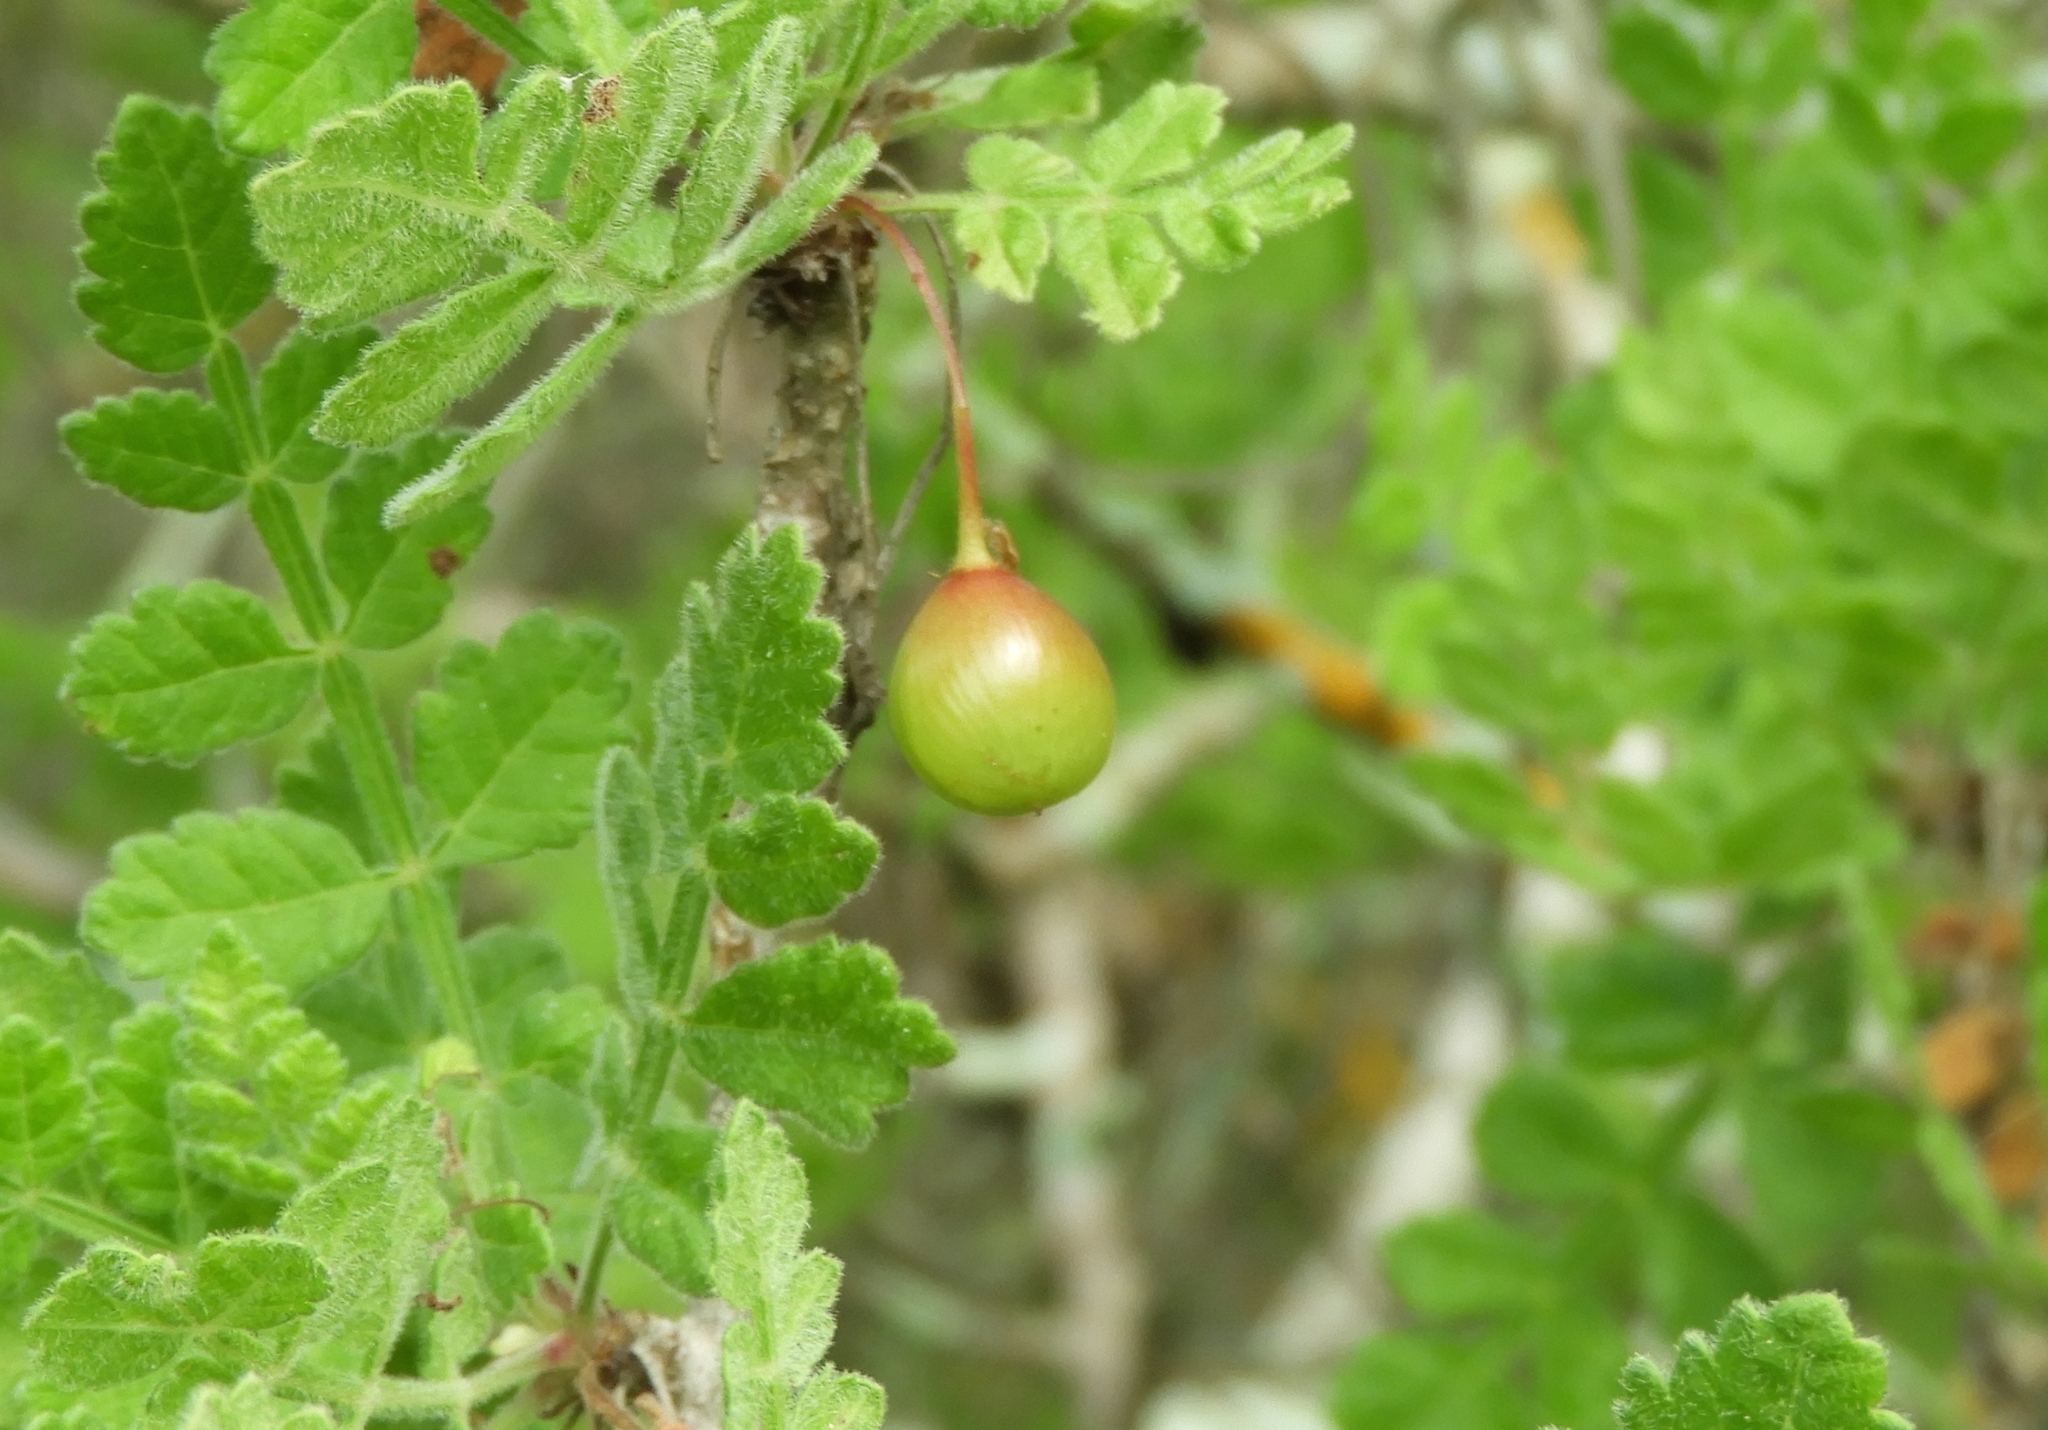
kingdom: Plantae
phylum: Tracheophyta
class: Magnoliopsida
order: Sapindales
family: Burseraceae
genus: Bursera
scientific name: Bursera ribana
